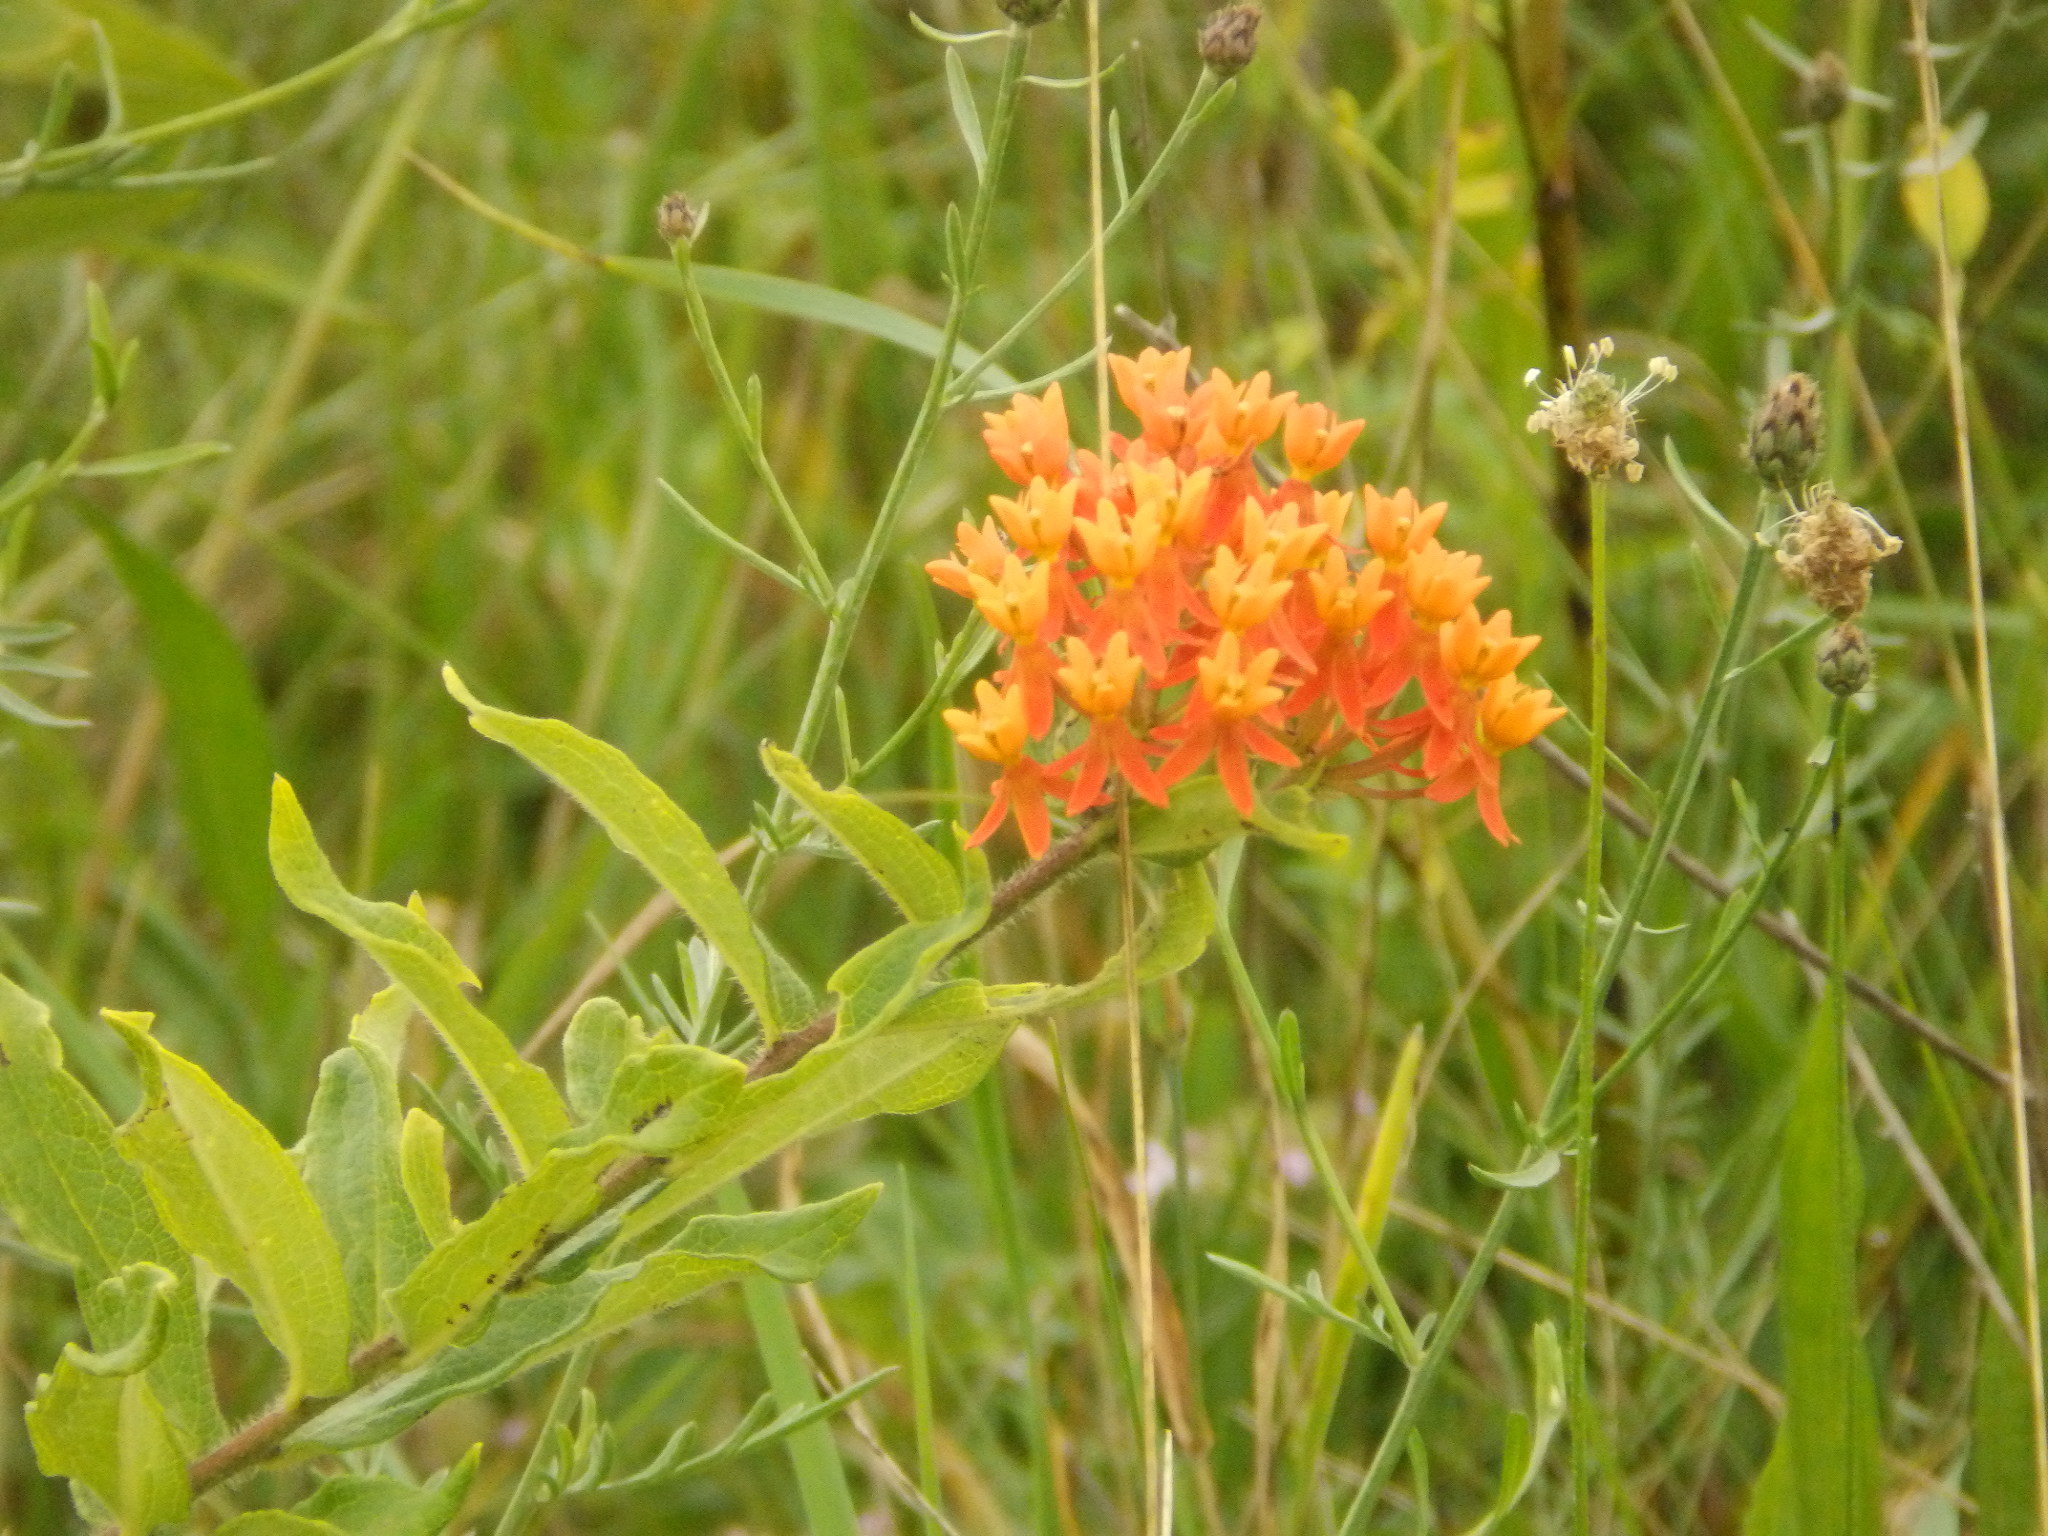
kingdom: Plantae
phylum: Tracheophyta
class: Magnoliopsida
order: Gentianales
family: Apocynaceae
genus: Asclepias
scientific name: Asclepias tuberosa
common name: Butterfly milkweed
